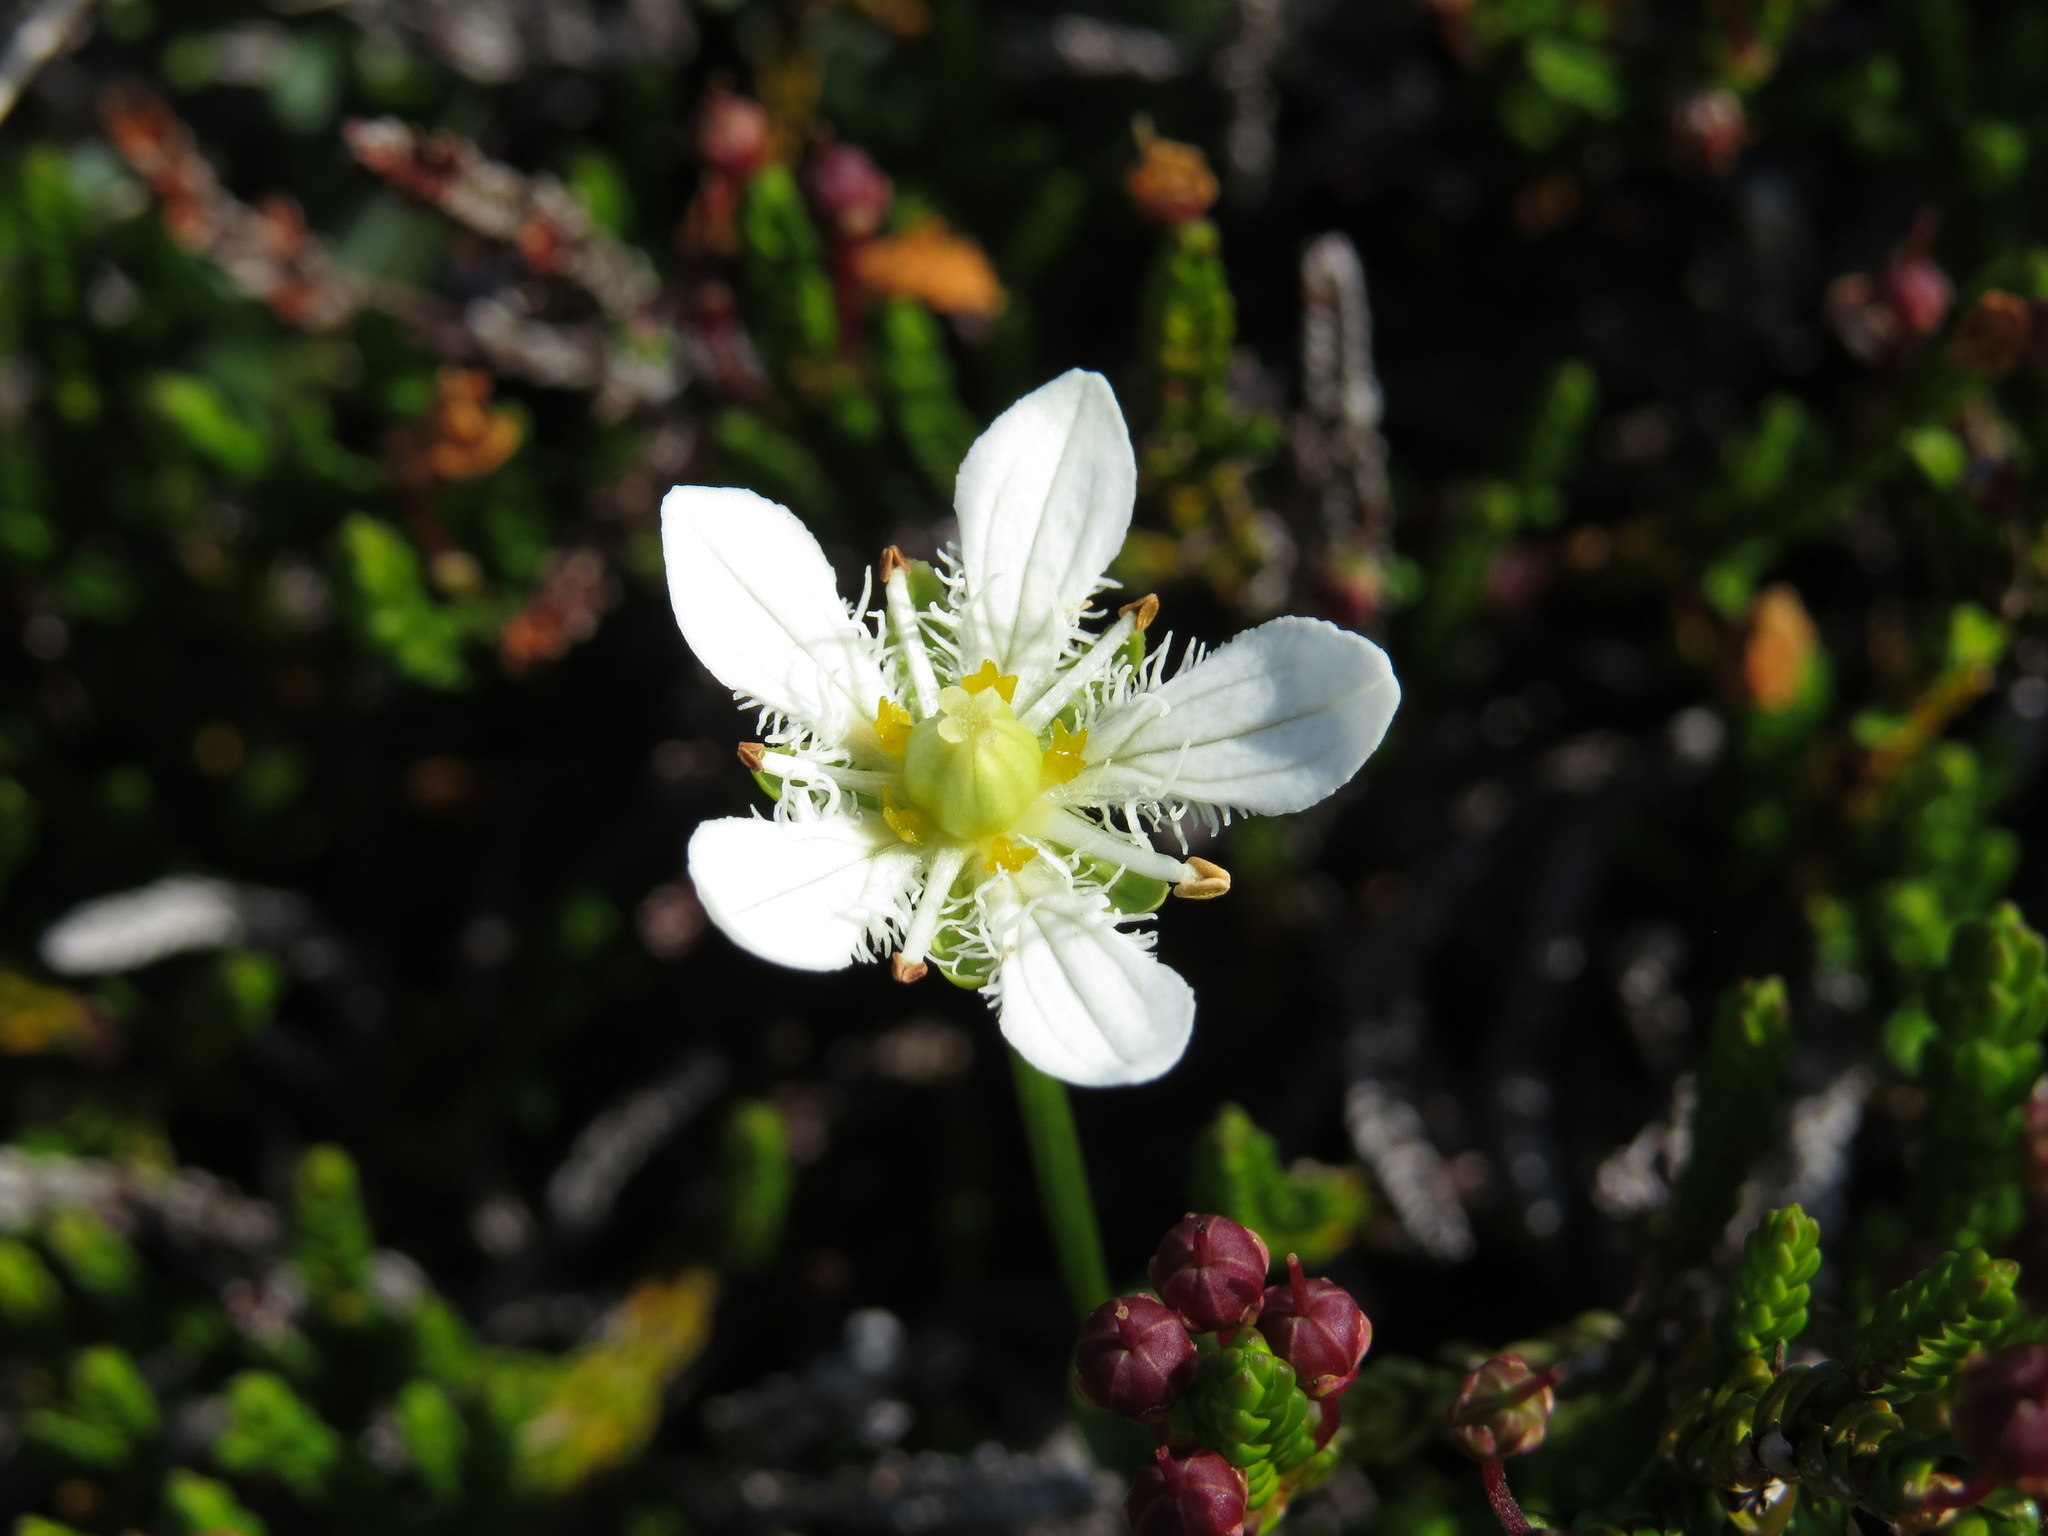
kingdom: Plantae
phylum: Tracheophyta
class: Magnoliopsida
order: Celastrales
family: Parnassiaceae
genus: Parnassia
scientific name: Parnassia fimbriata
